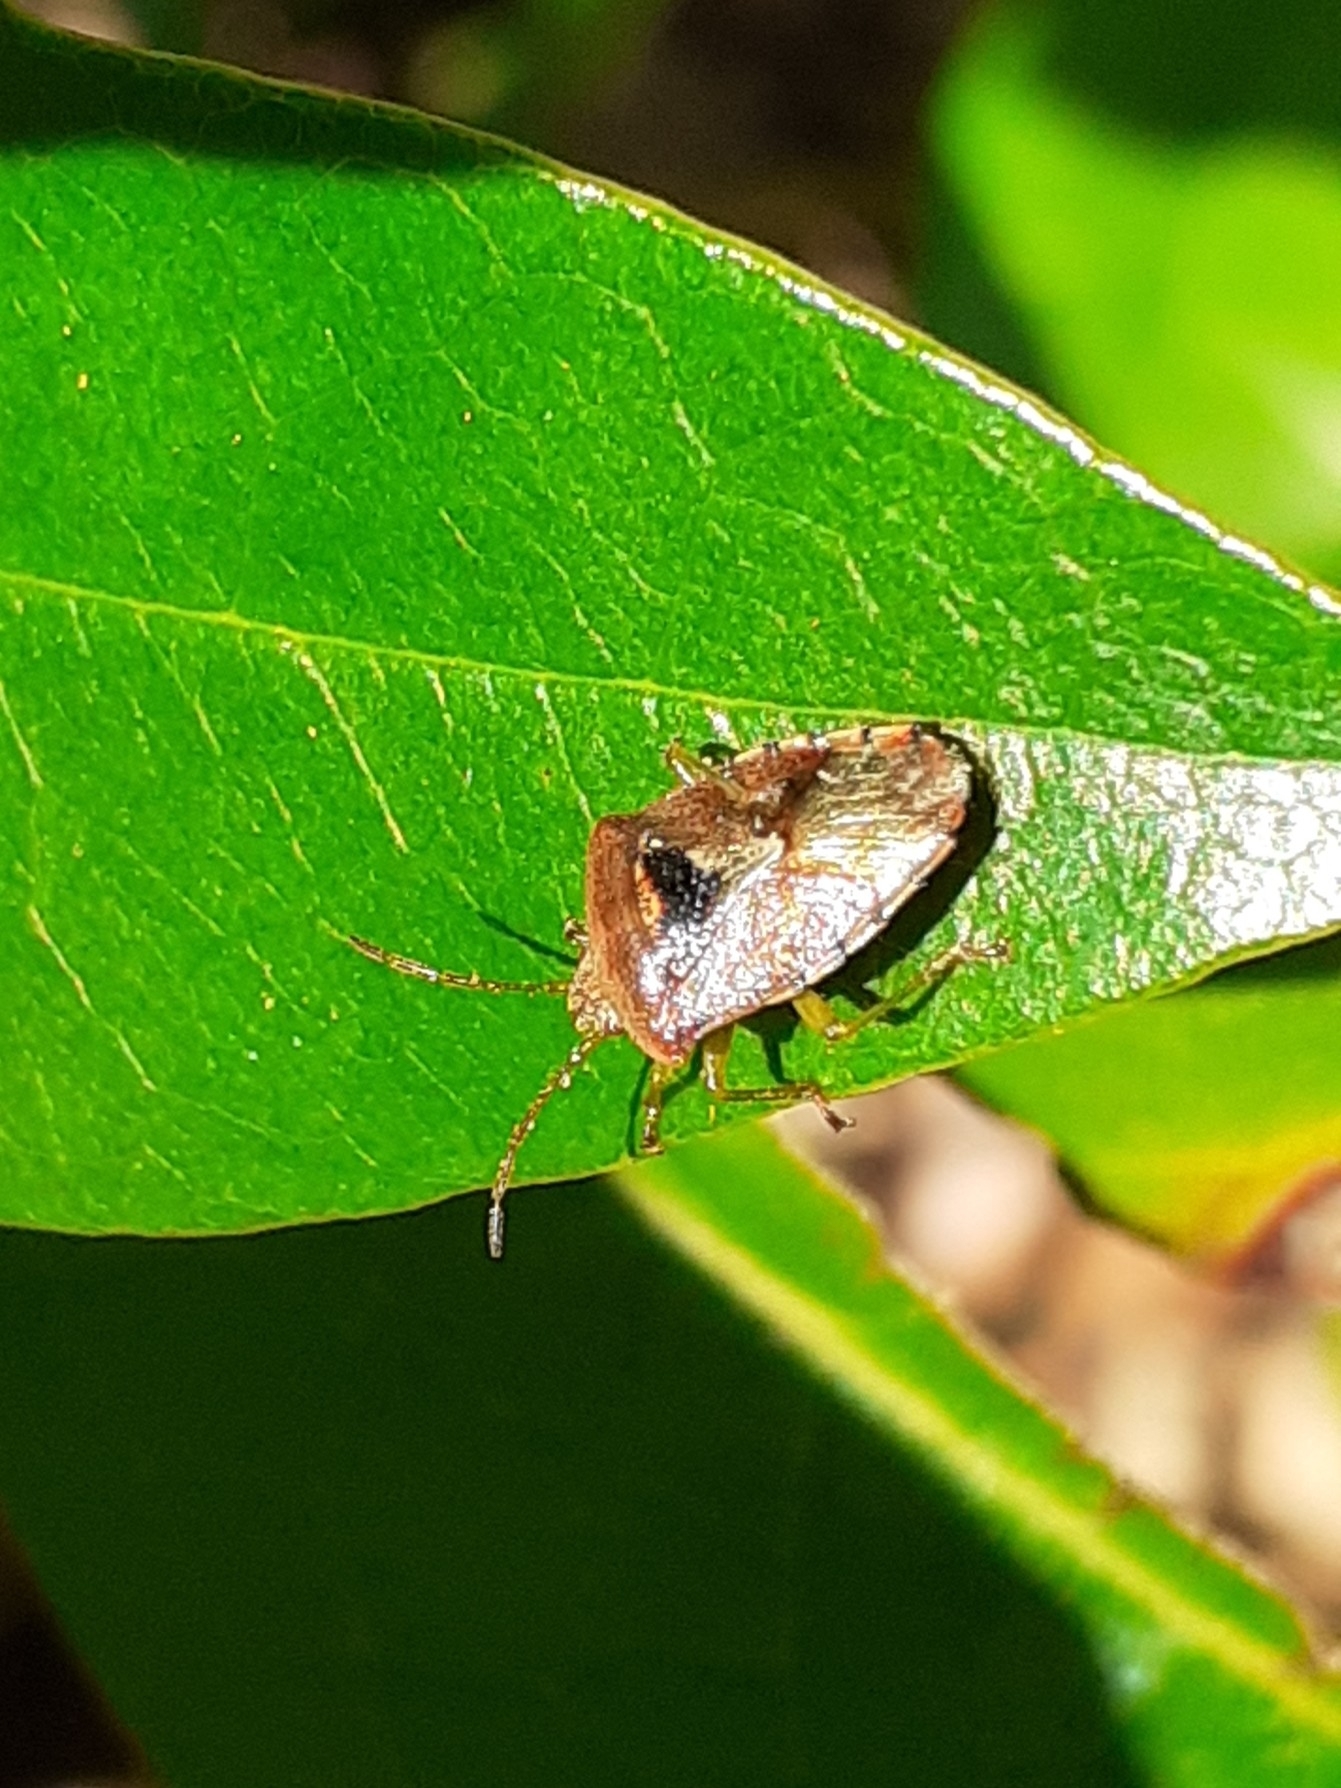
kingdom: Animalia
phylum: Arthropoda
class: Insecta
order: Hemiptera
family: Acanthosomatidae
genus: Elasmucha
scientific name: Elasmucha grisea
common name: Parent bug
